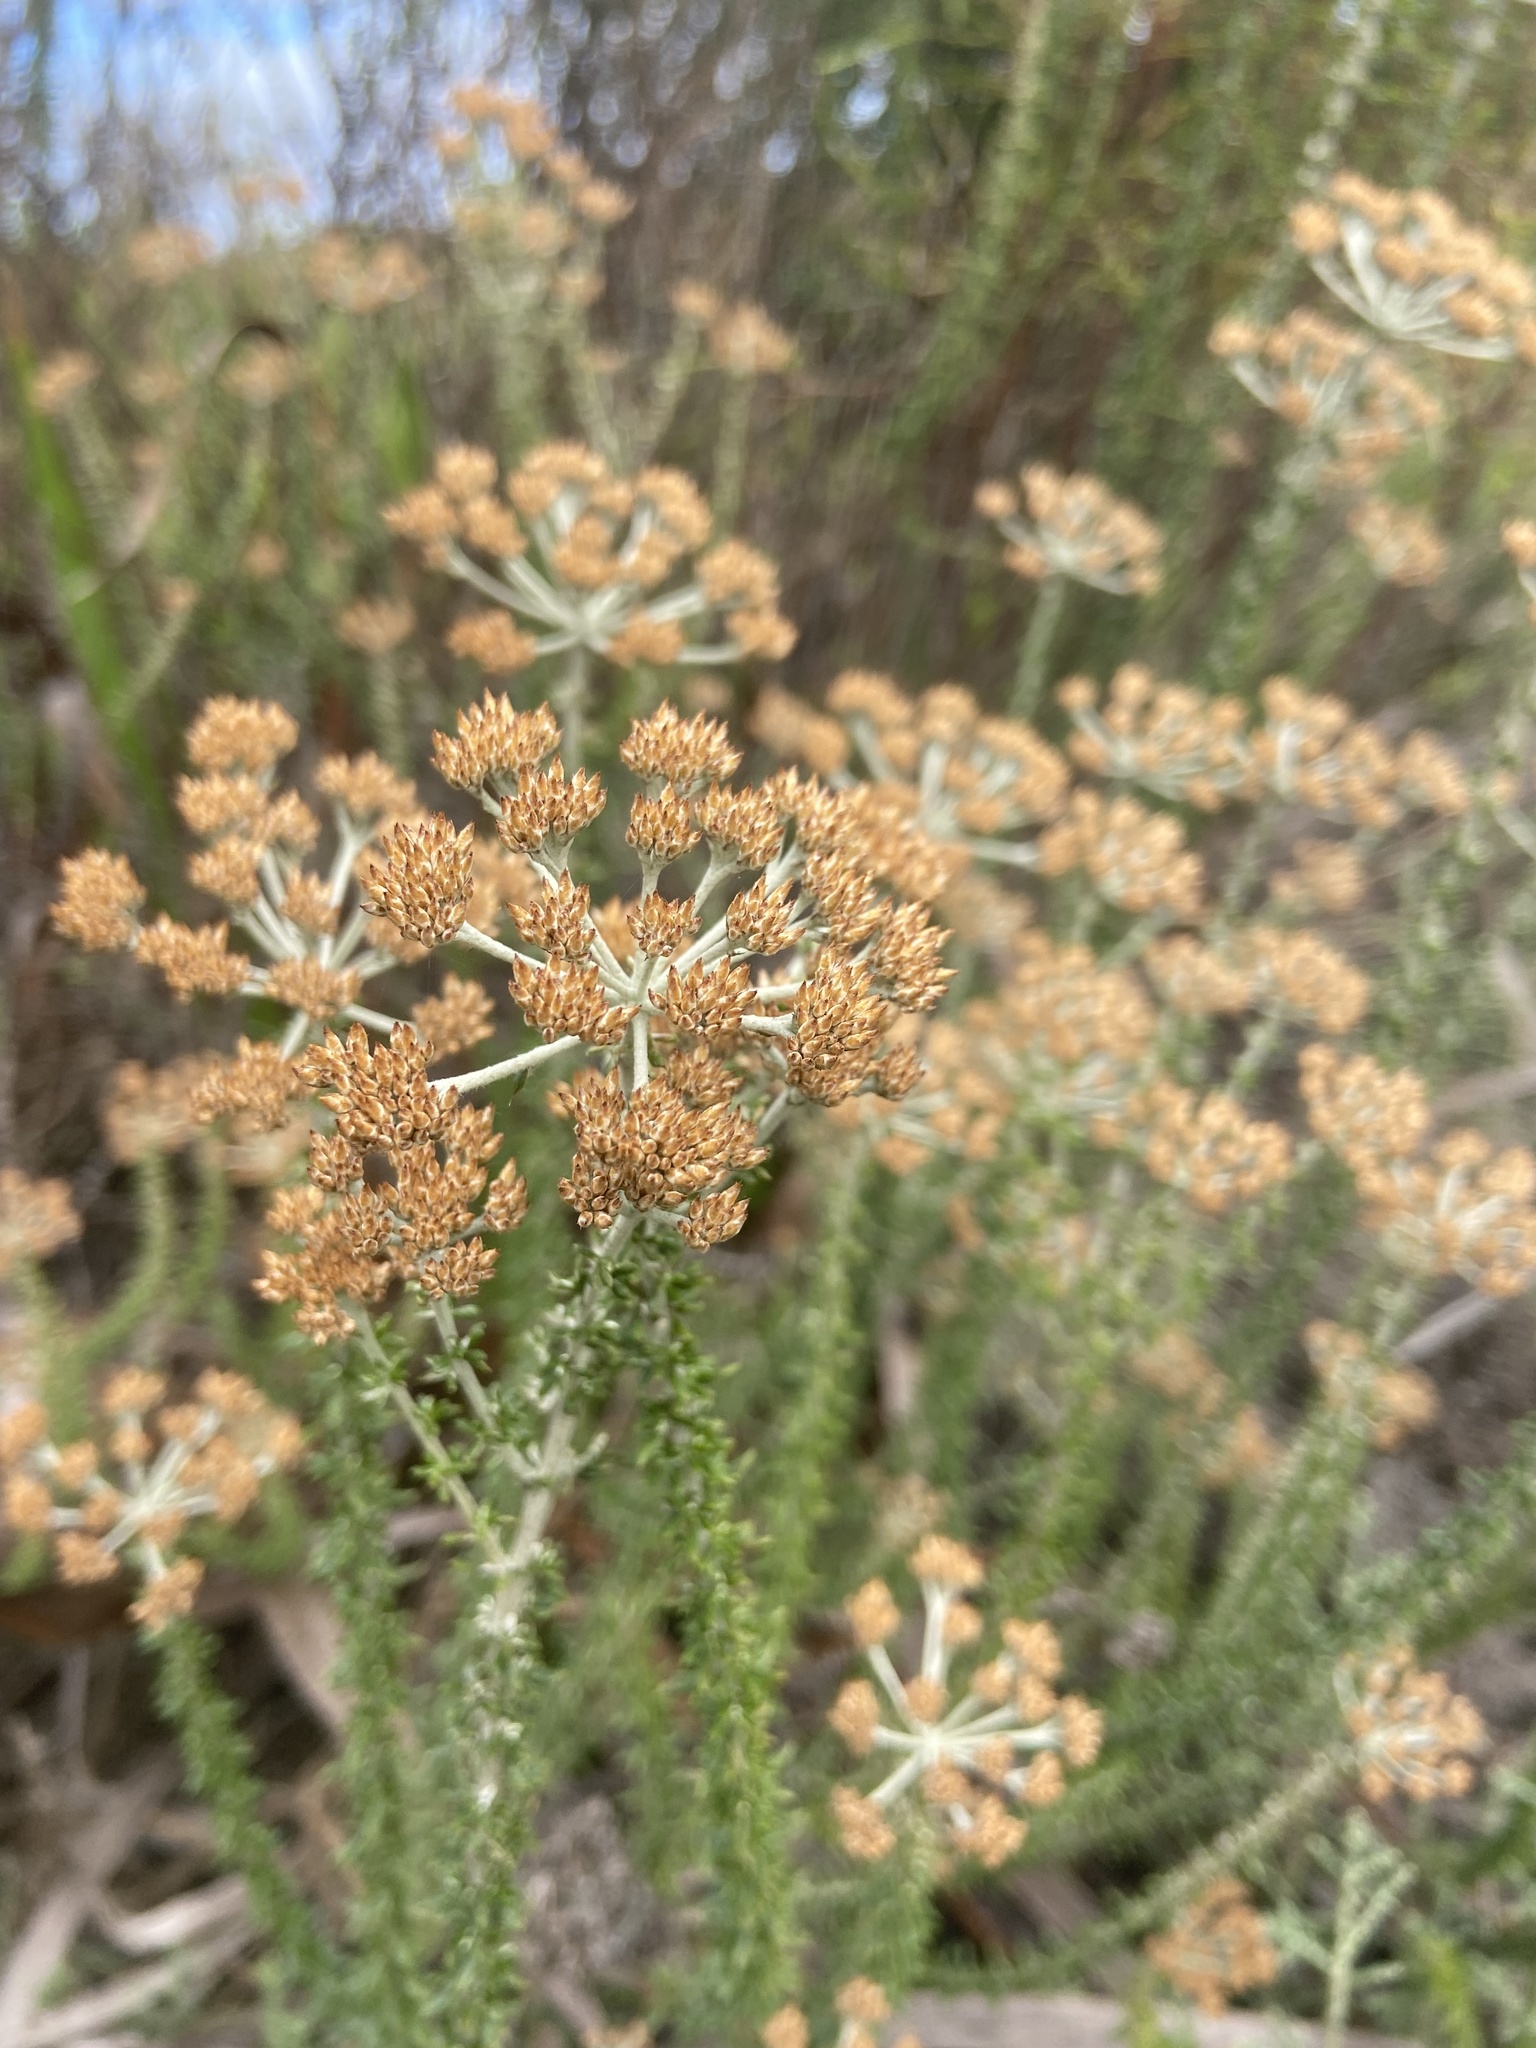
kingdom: Plantae
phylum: Tracheophyta
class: Magnoliopsida
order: Asterales
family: Asteraceae
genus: Metalasia
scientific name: Metalasia densa
